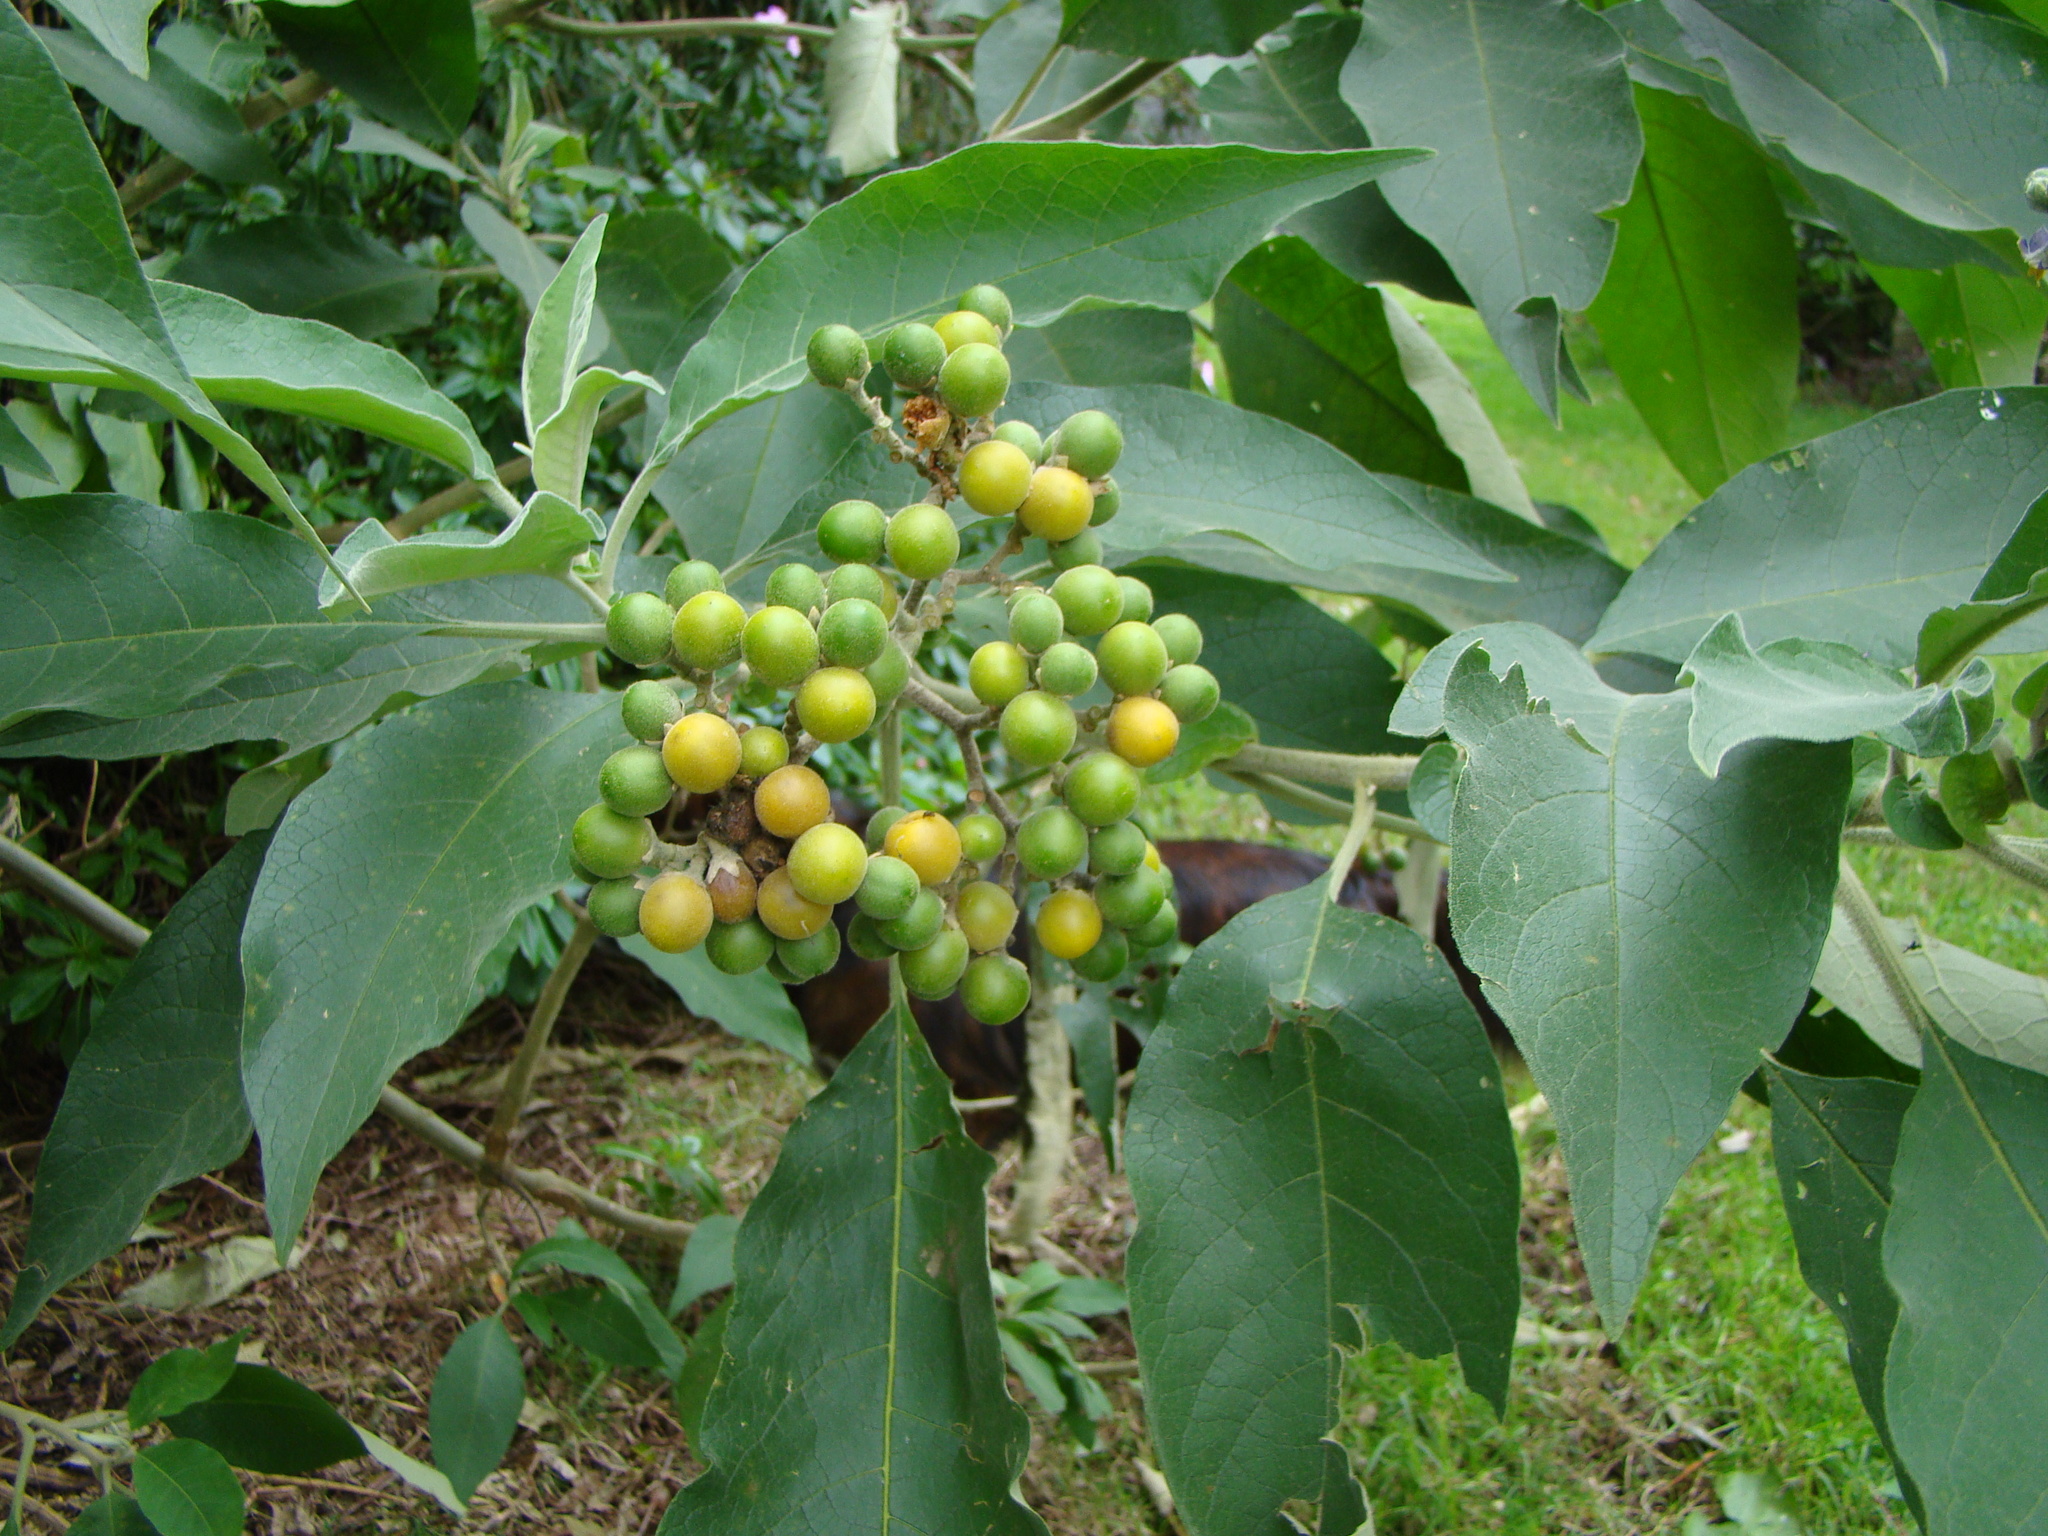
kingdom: Plantae
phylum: Tracheophyta
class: Magnoliopsida
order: Solanales
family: Solanaceae
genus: Solanum
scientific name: Solanum mauritianum
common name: Earleaf nightshade
